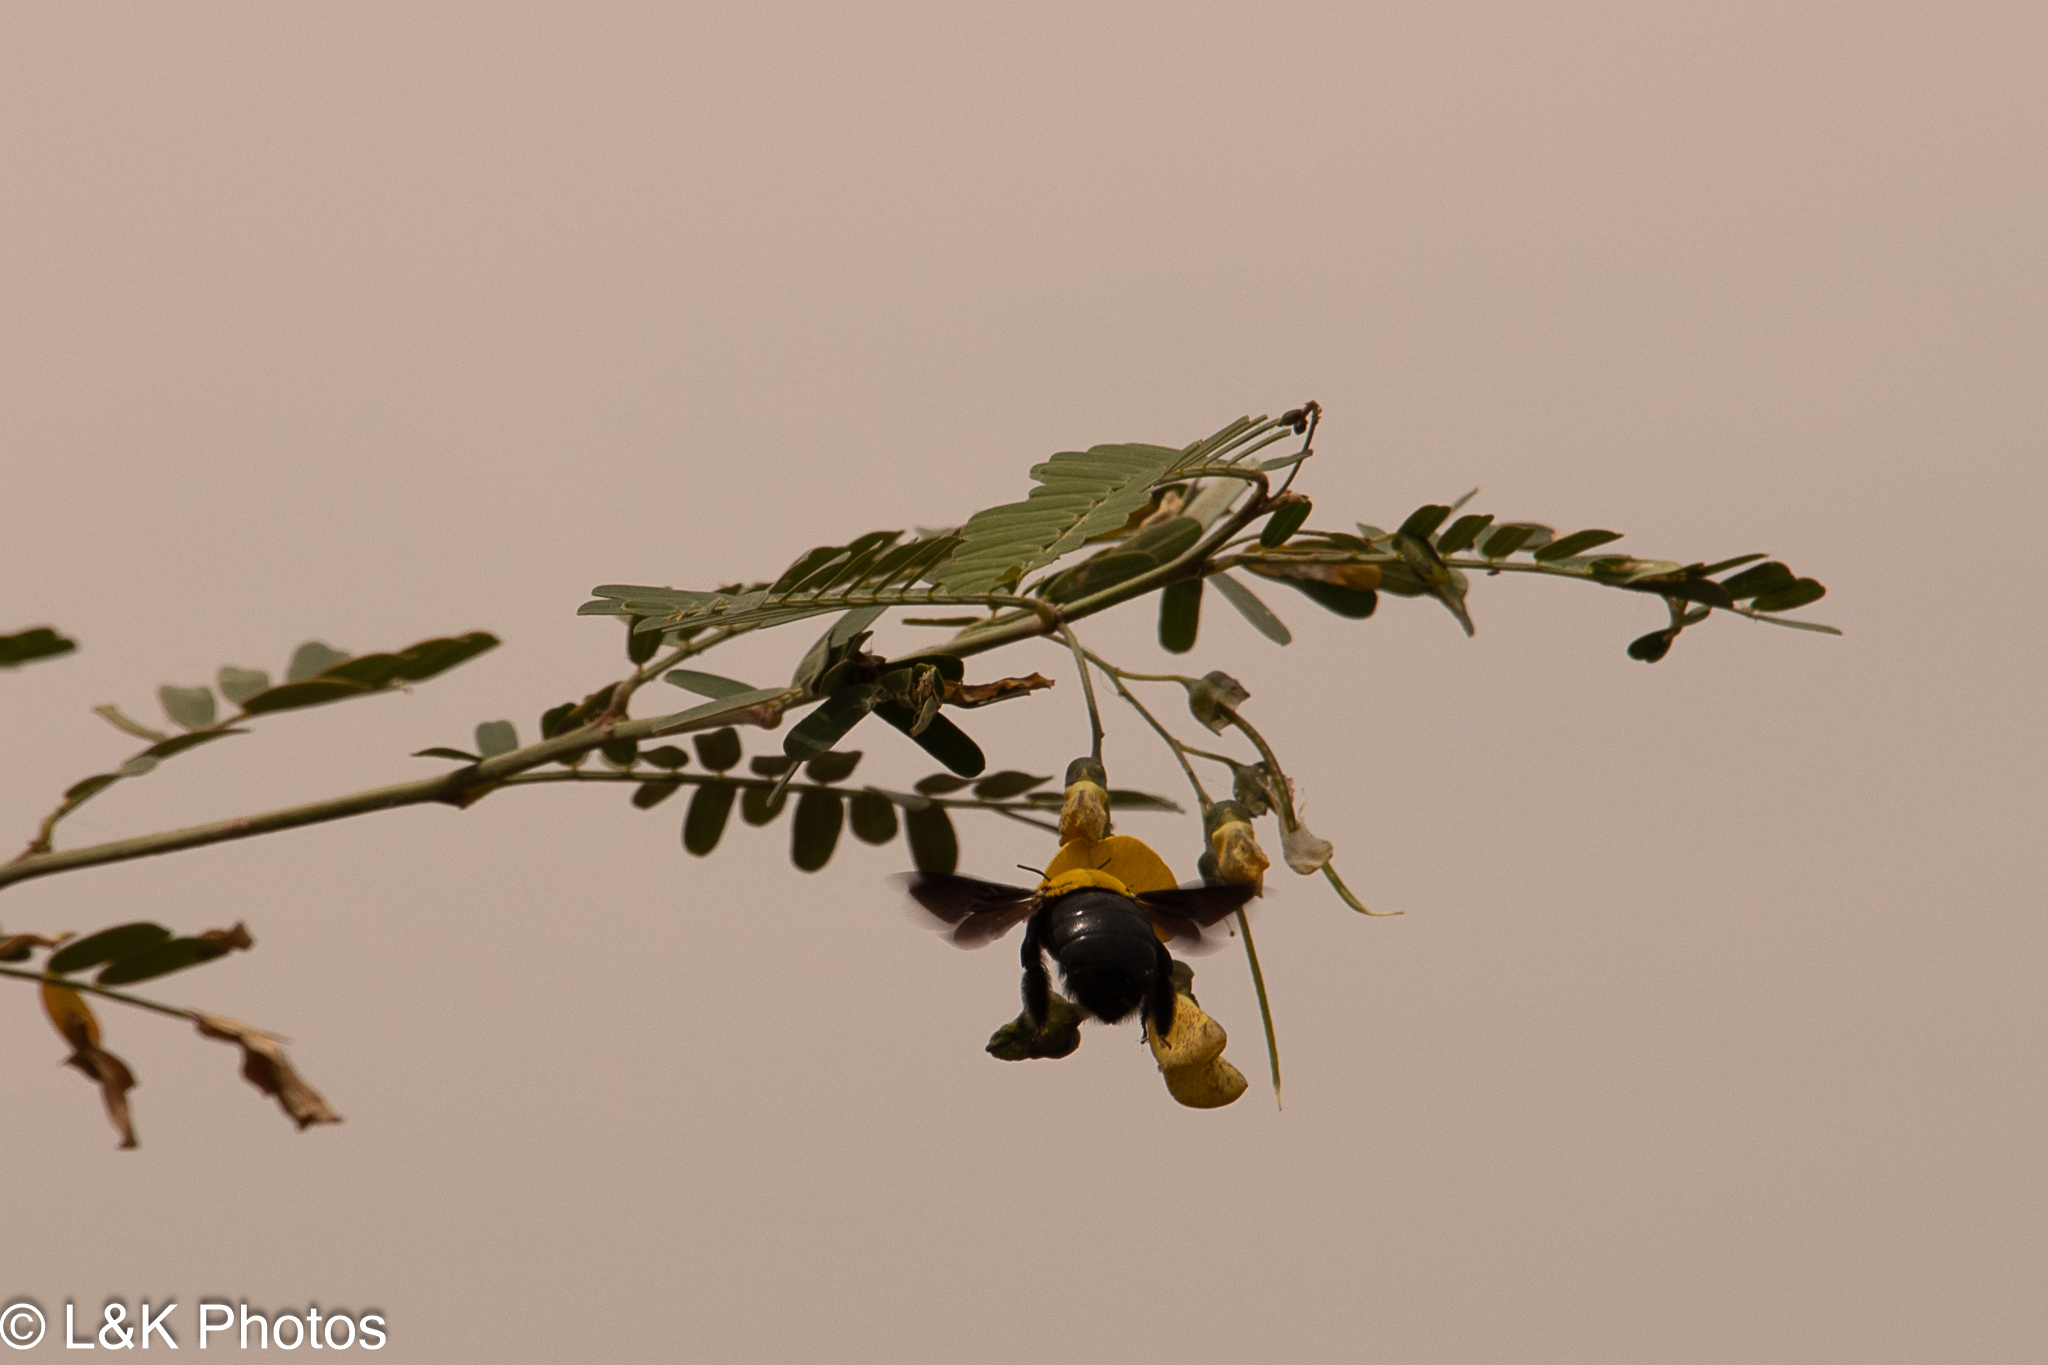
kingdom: Animalia
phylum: Arthropoda
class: Insecta
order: Hymenoptera
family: Apidae
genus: Xylocopa
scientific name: Xylocopa pubescens
